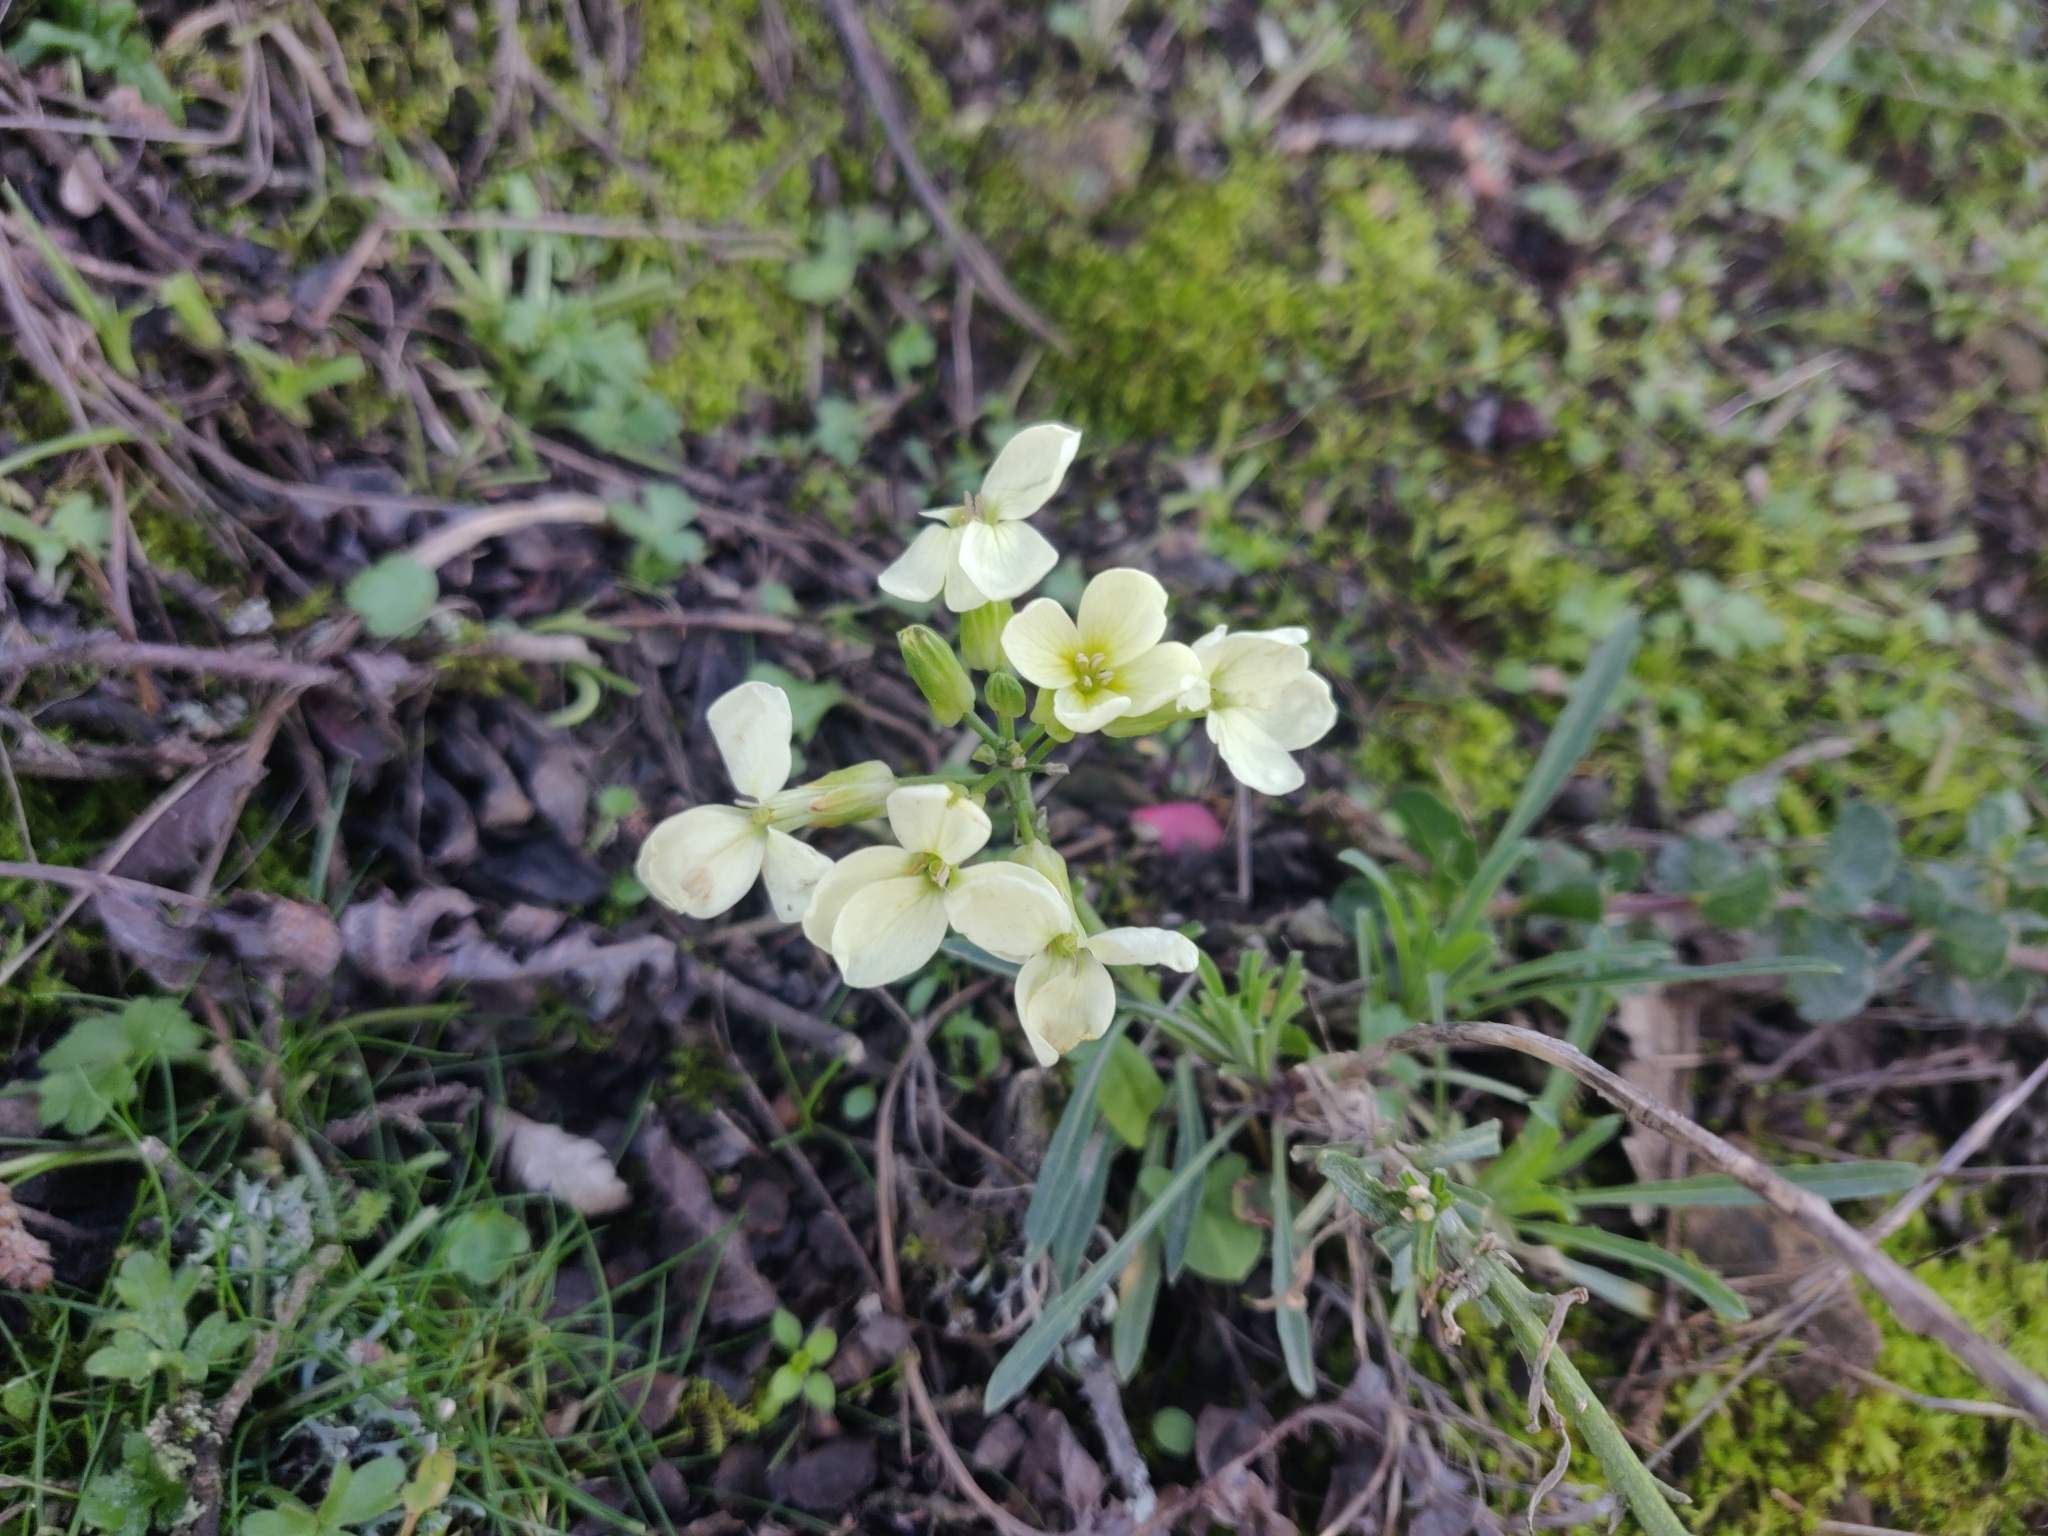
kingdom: Plantae
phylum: Tracheophyta
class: Magnoliopsida
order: Brassicales
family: Brassicaceae
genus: Erysimum
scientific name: Erysimum franciscanum
